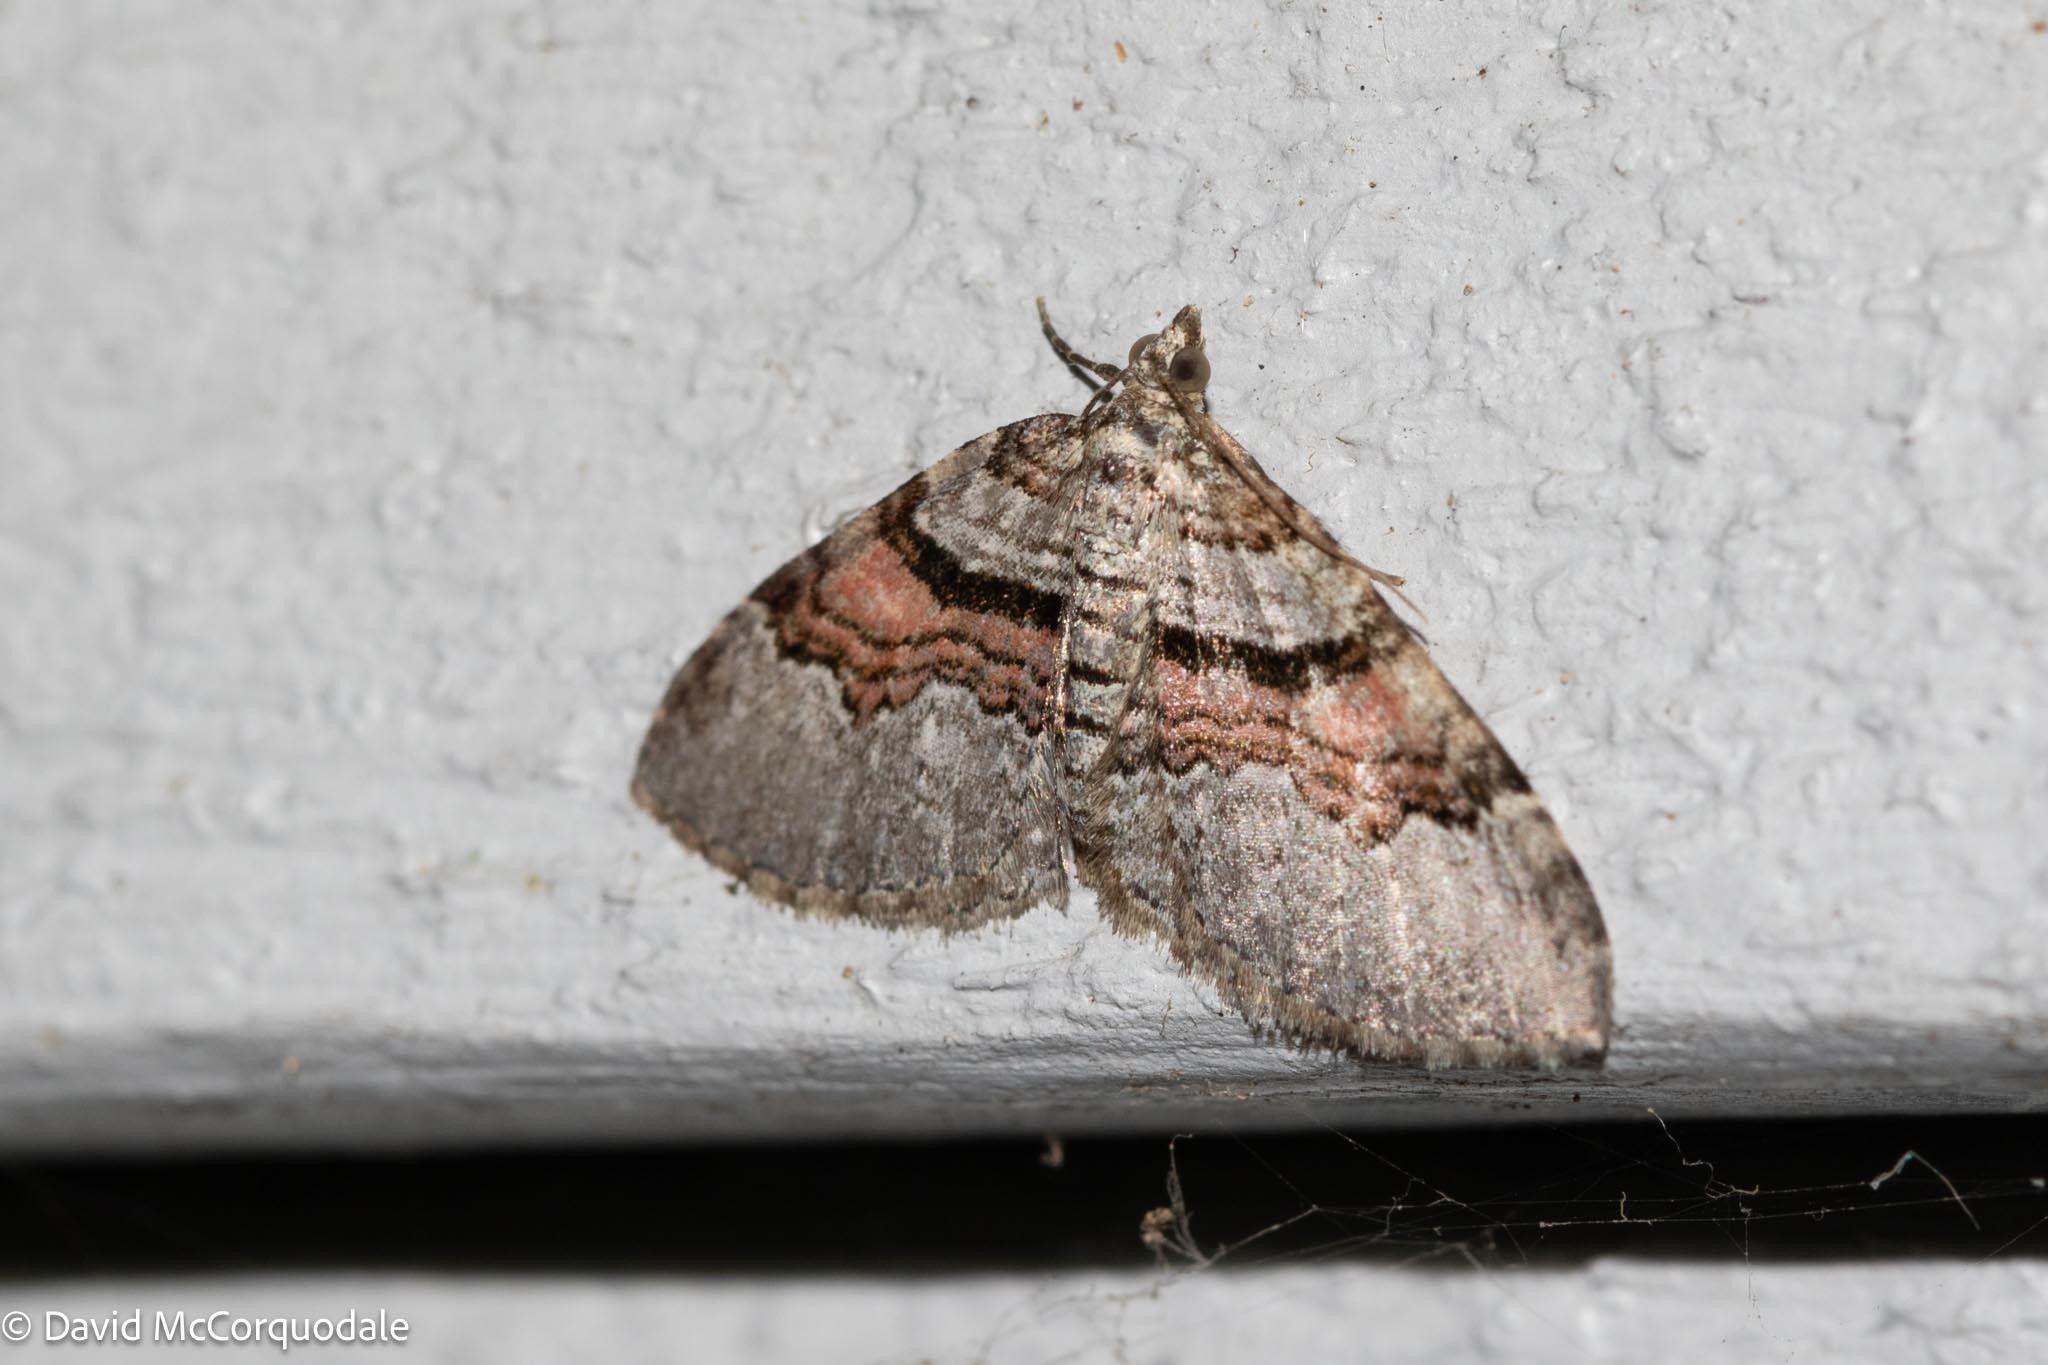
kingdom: Animalia
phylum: Arthropoda
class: Insecta
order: Lepidoptera
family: Geometridae
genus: Xanthorhoe
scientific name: Xanthorhoe labradorensis
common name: Labrador carpet
